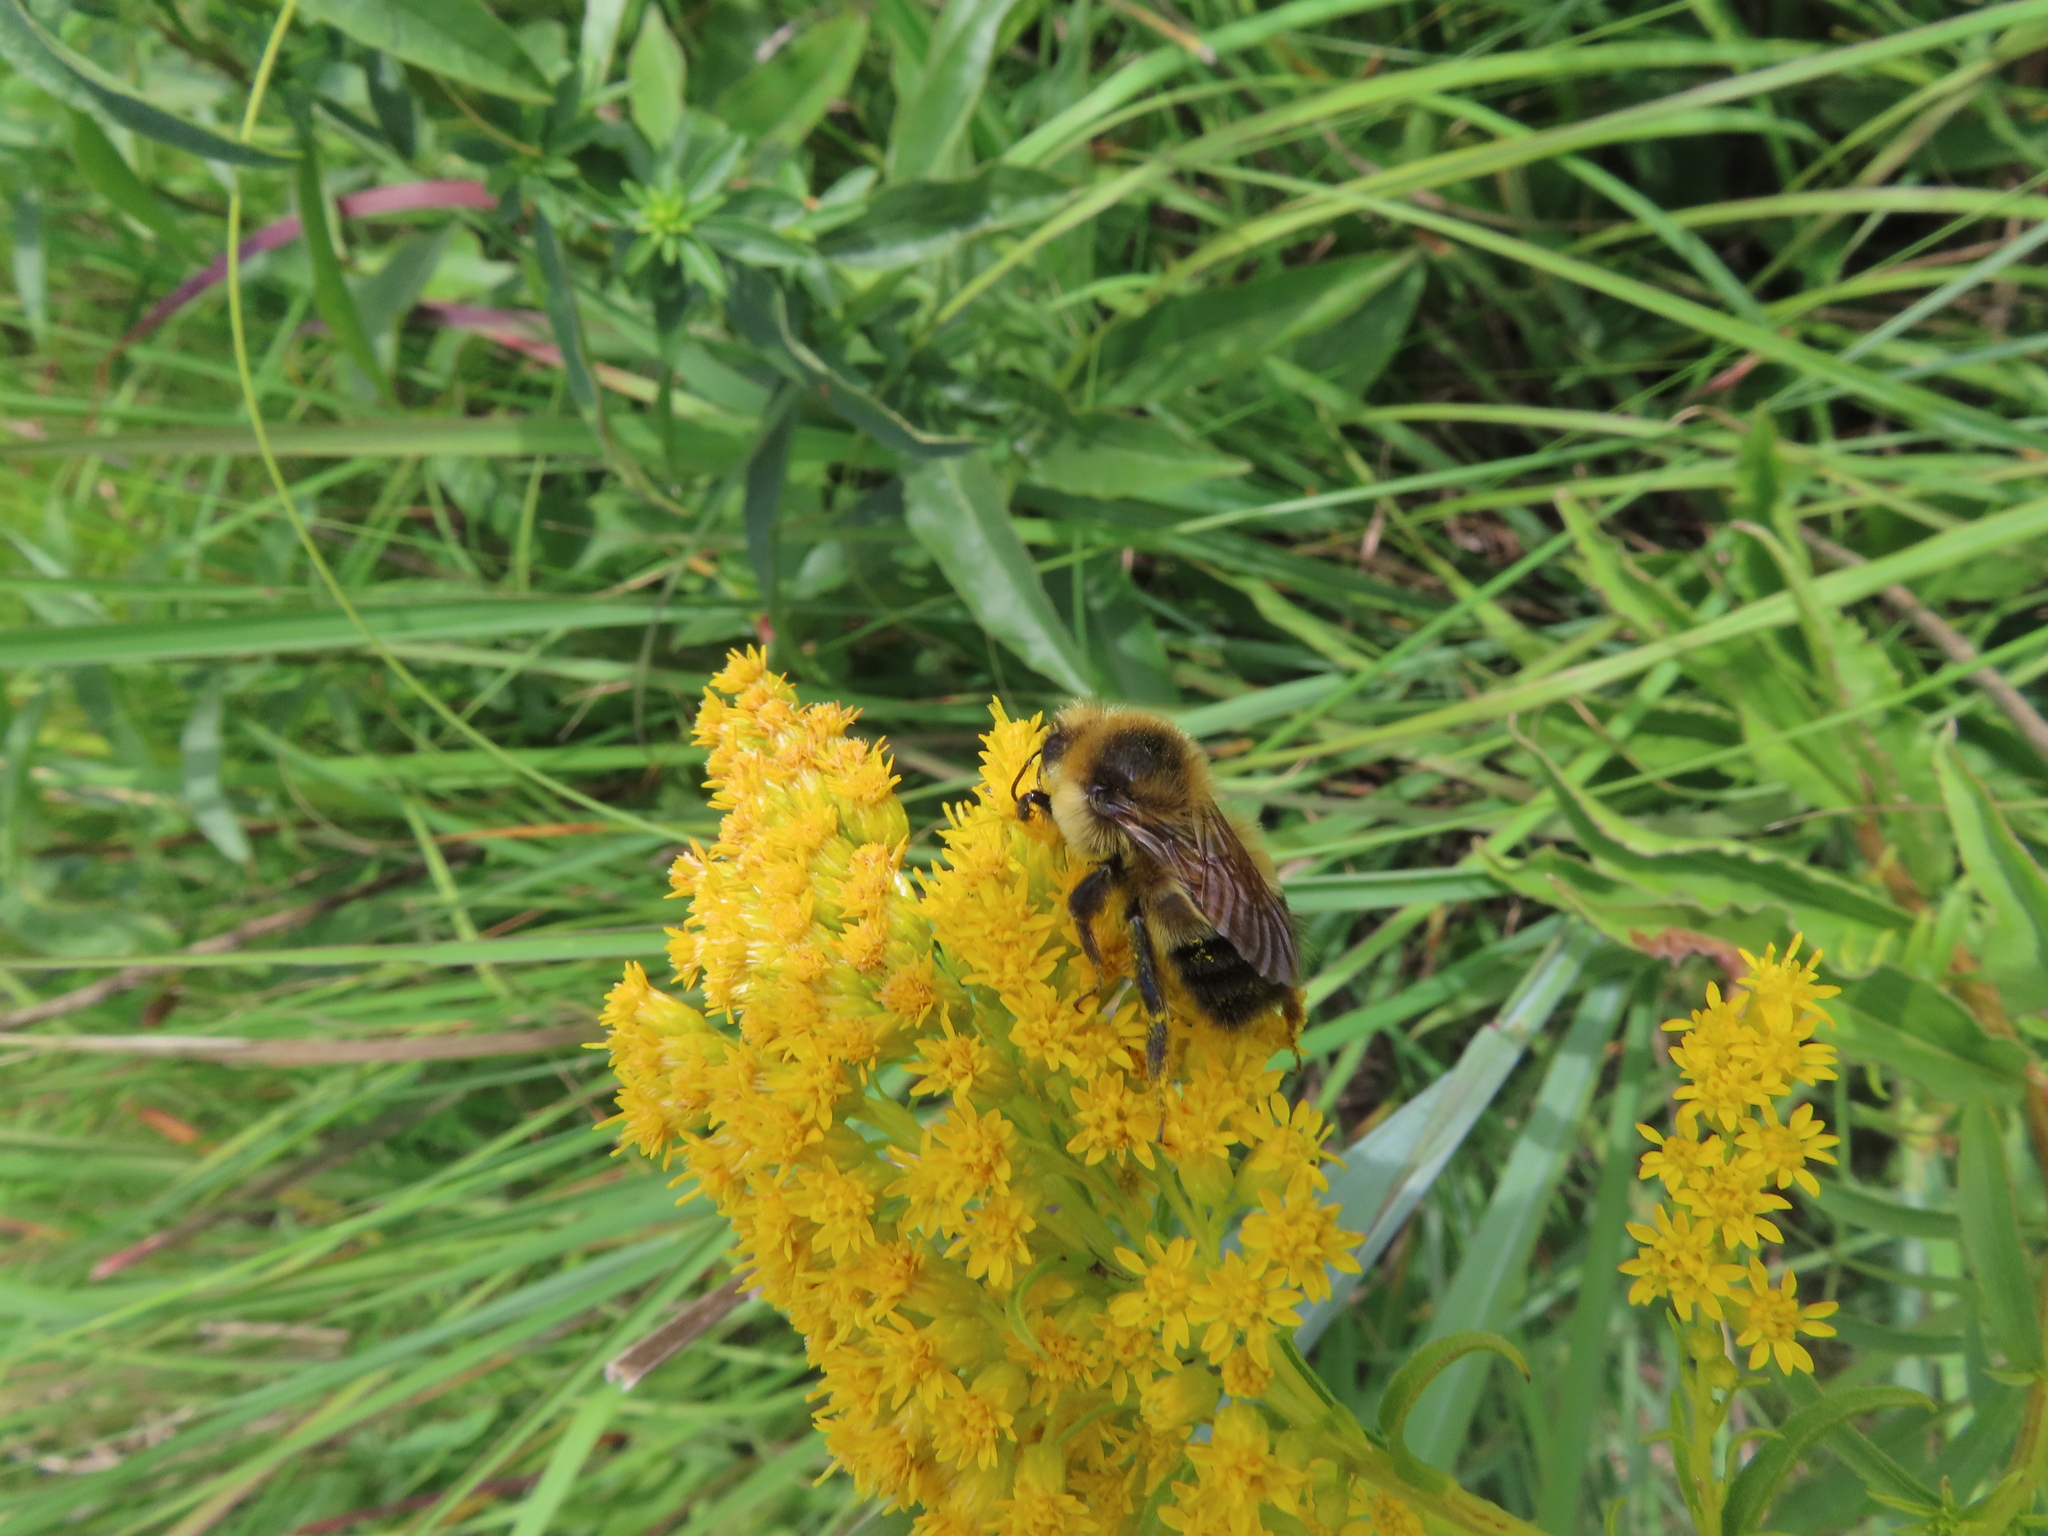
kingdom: Animalia
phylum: Arthropoda
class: Insecta
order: Hymenoptera
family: Apidae
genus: Bombus
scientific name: Bombus rufocinctus
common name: Red-belted bumble bee
